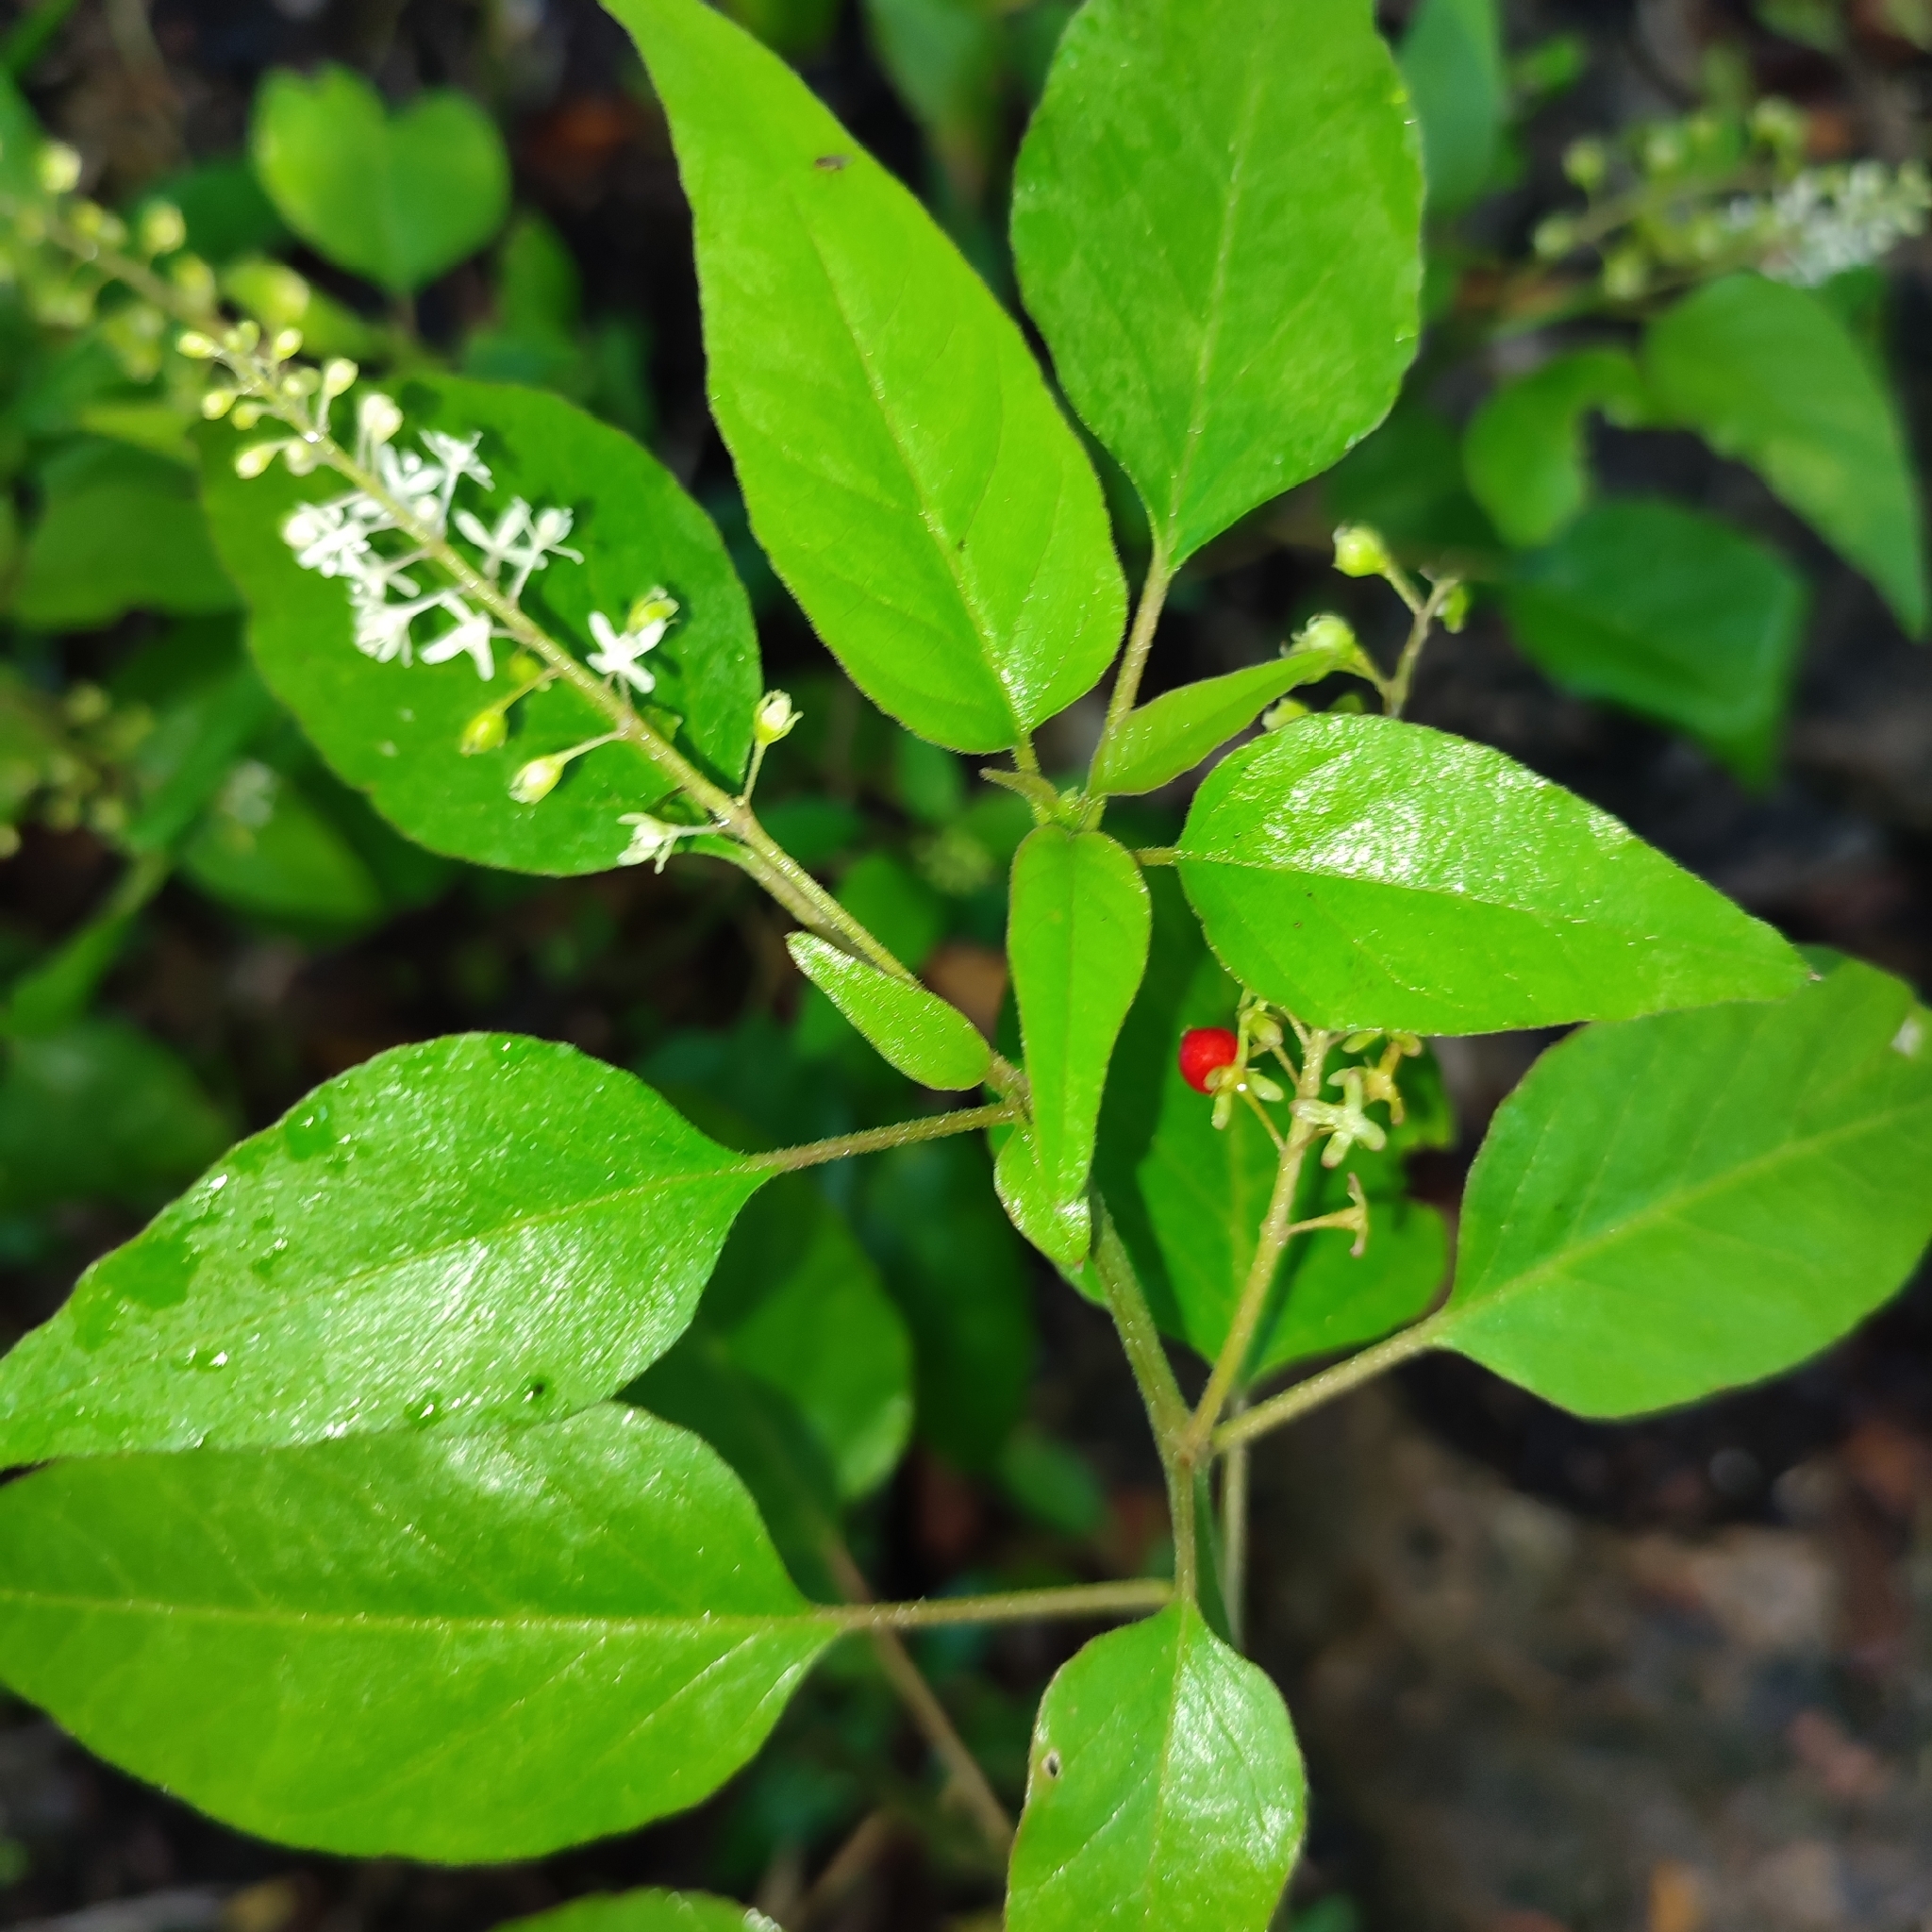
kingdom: Plantae
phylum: Tracheophyta
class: Magnoliopsida
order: Caryophyllales
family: Phytolaccaceae
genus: Rivina
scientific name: Rivina humilis
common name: Rougeplant
